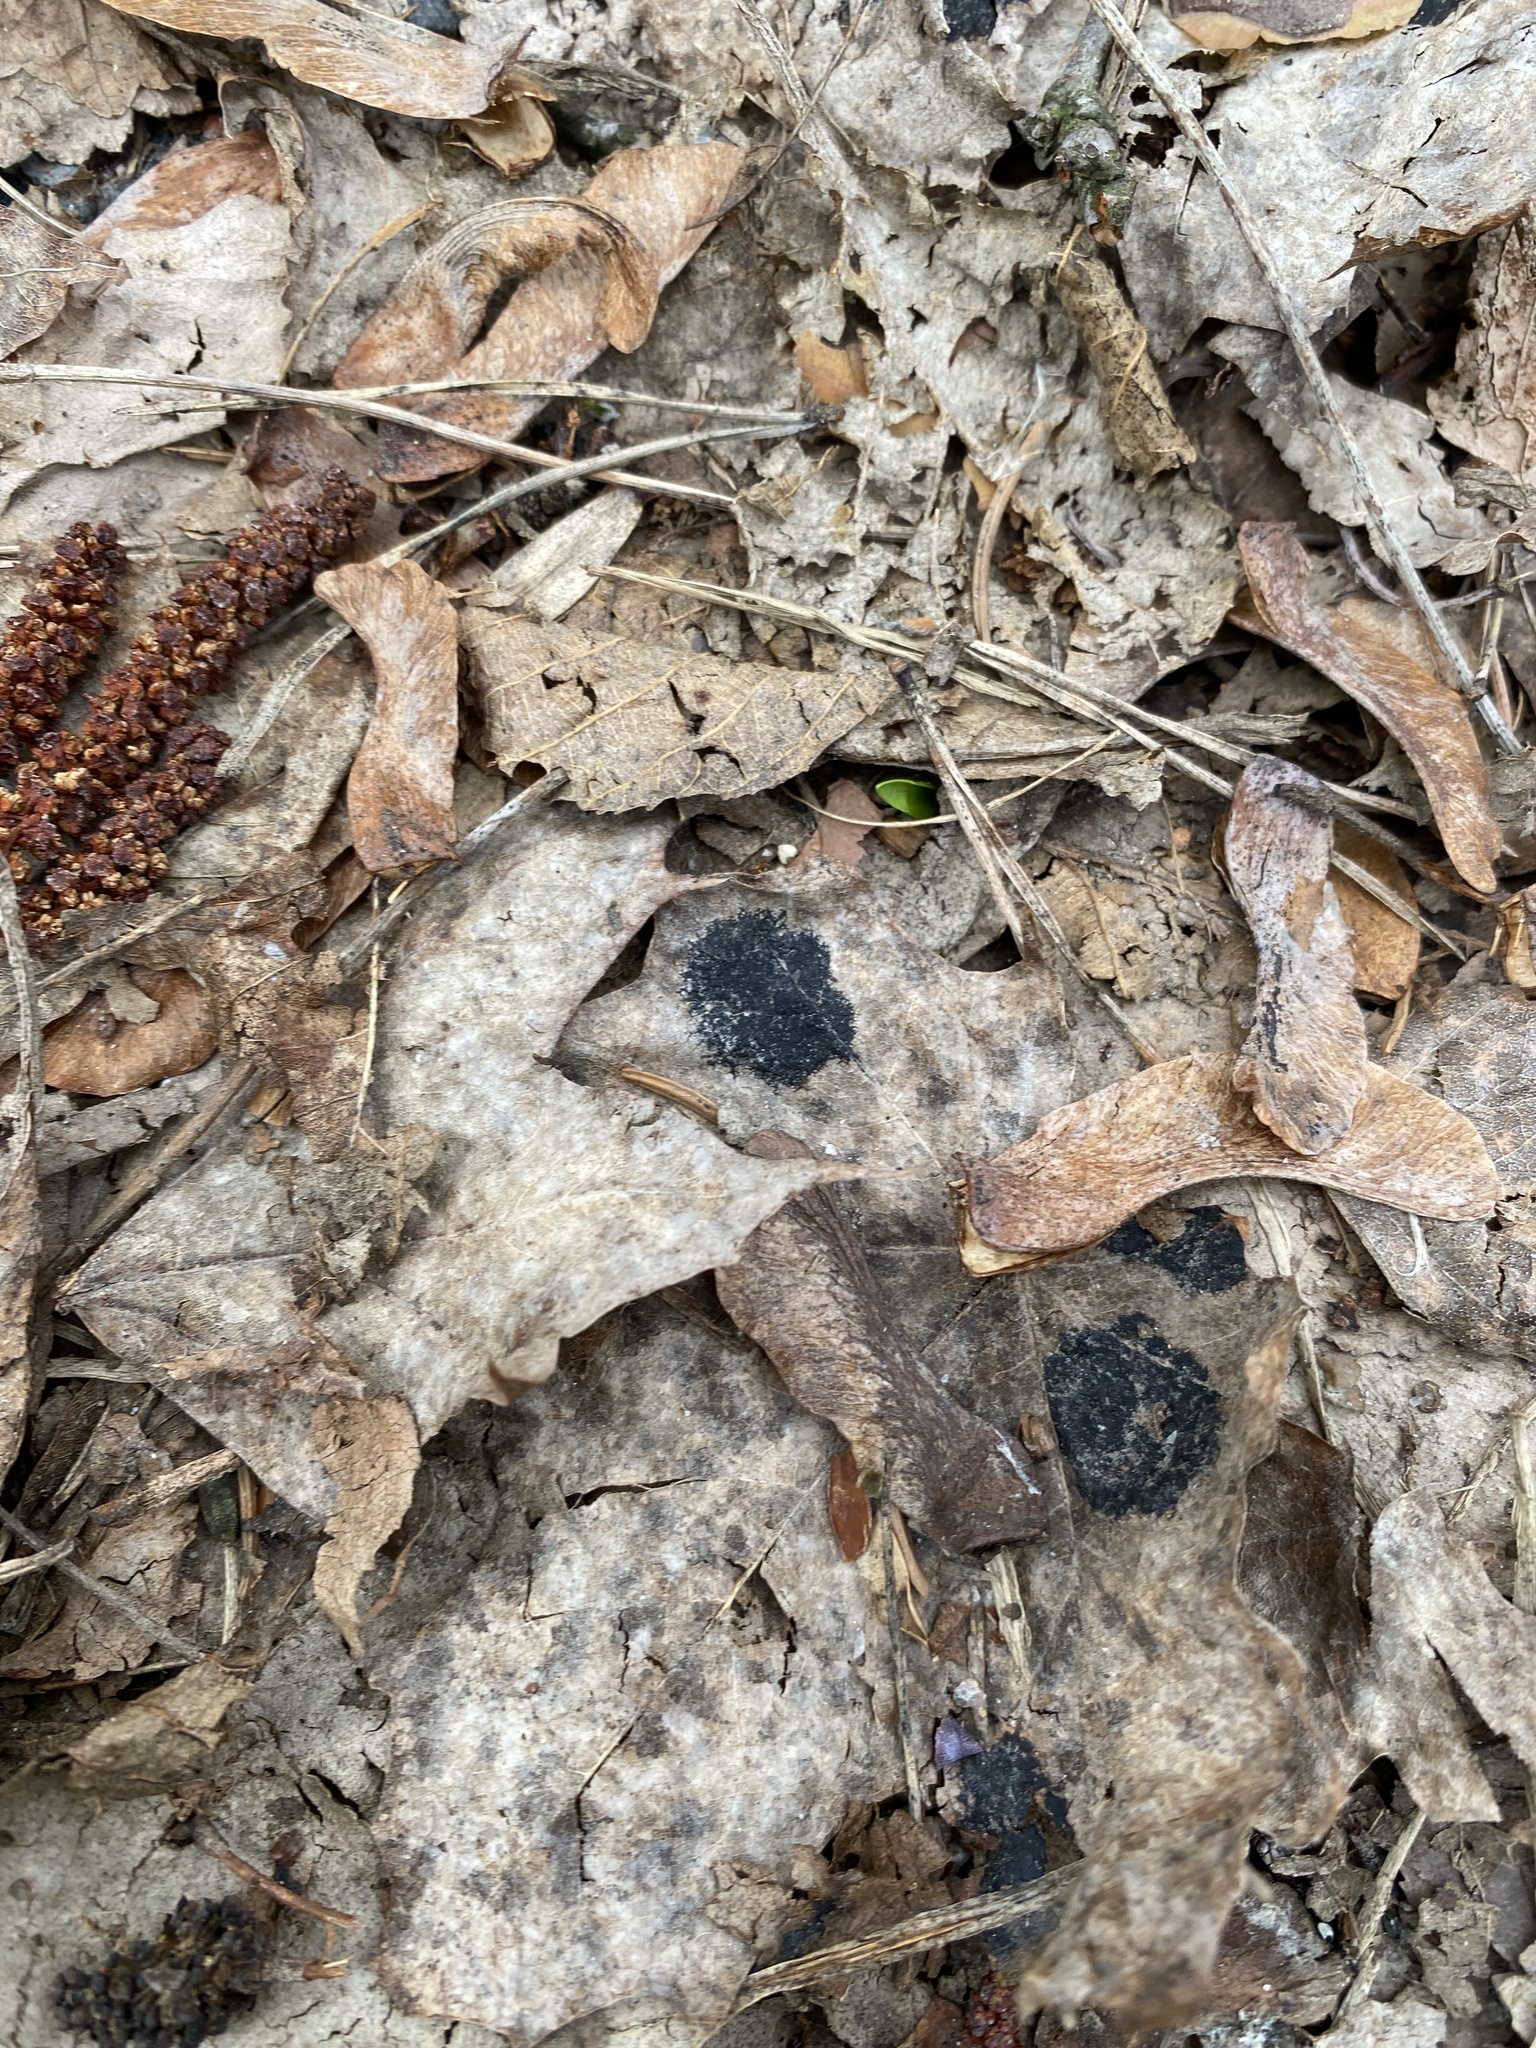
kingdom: Fungi
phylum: Ascomycota
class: Leotiomycetes
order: Rhytismatales
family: Rhytismataceae
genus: Rhytisma
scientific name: Rhytisma acerinum
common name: European tar spot
